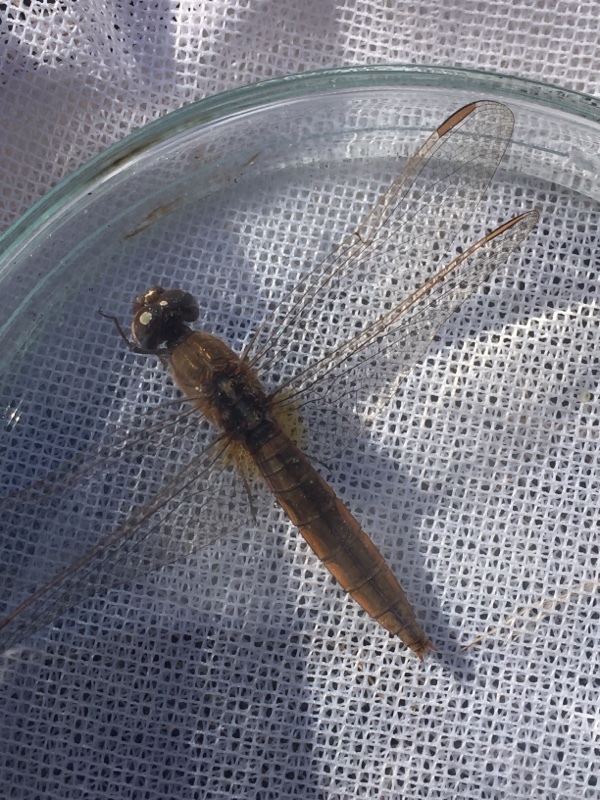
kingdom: Animalia
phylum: Arthropoda
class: Insecta
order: Odonata
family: Libellulidae
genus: Crocothemis
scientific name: Crocothemis erythraea
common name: Scarlet dragonfly
